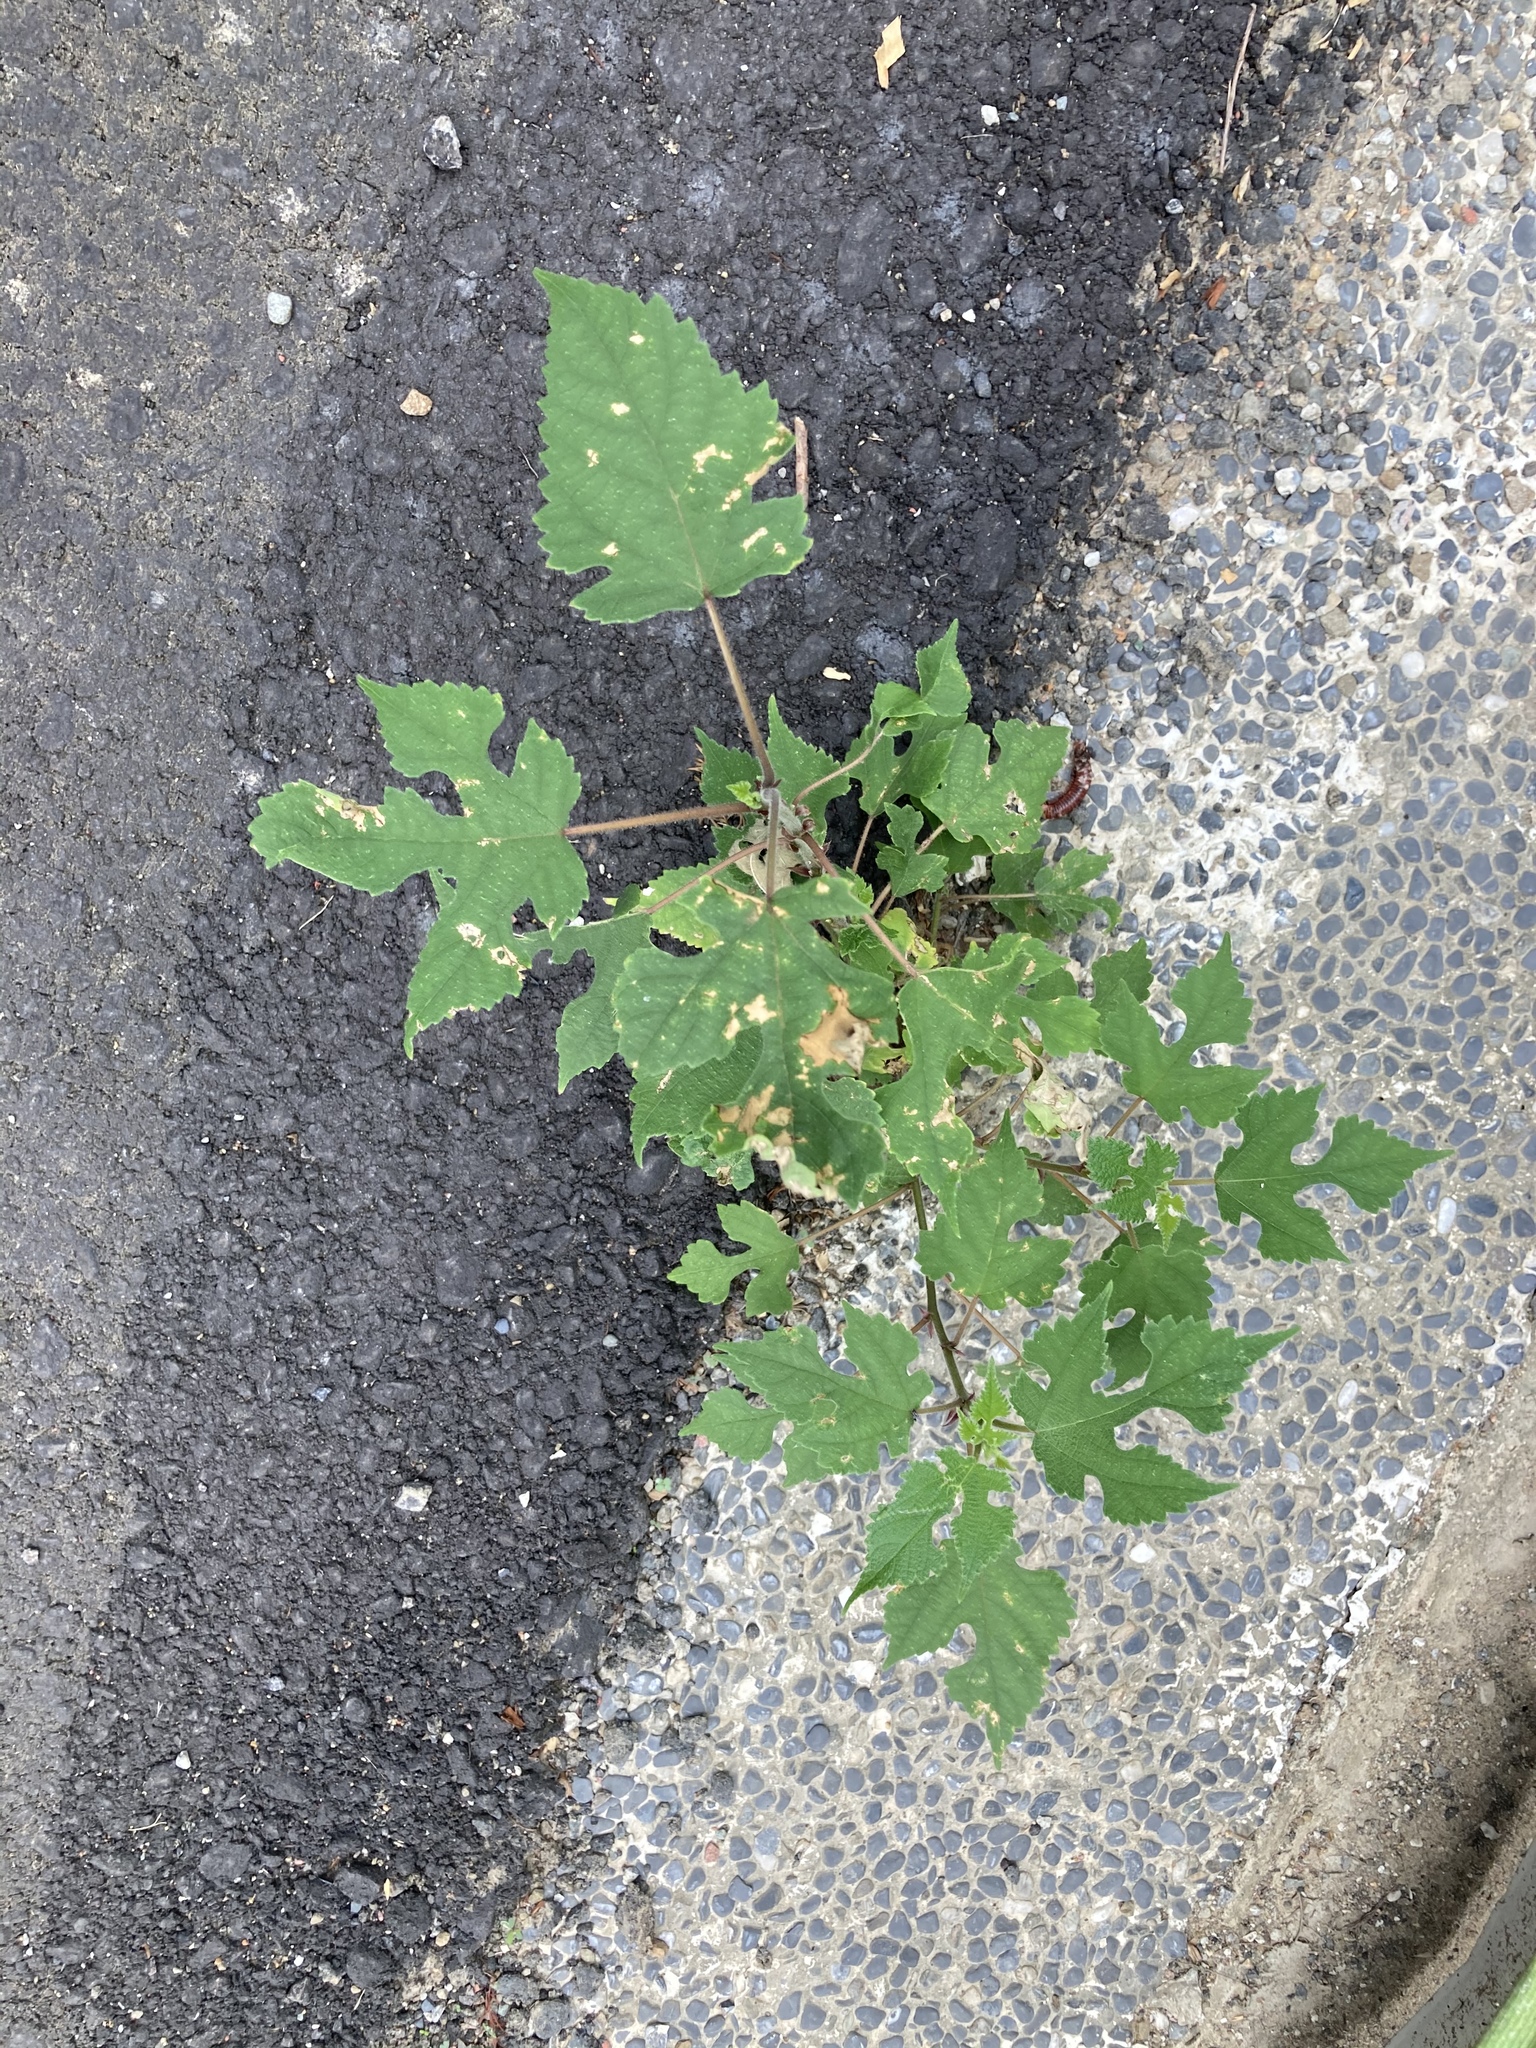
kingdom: Plantae
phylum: Tracheophyta
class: Magnoliopsida
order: Rosales
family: Moraceae
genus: Broussonetia
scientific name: Broussonetia papyrifera
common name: Paper mulberry
